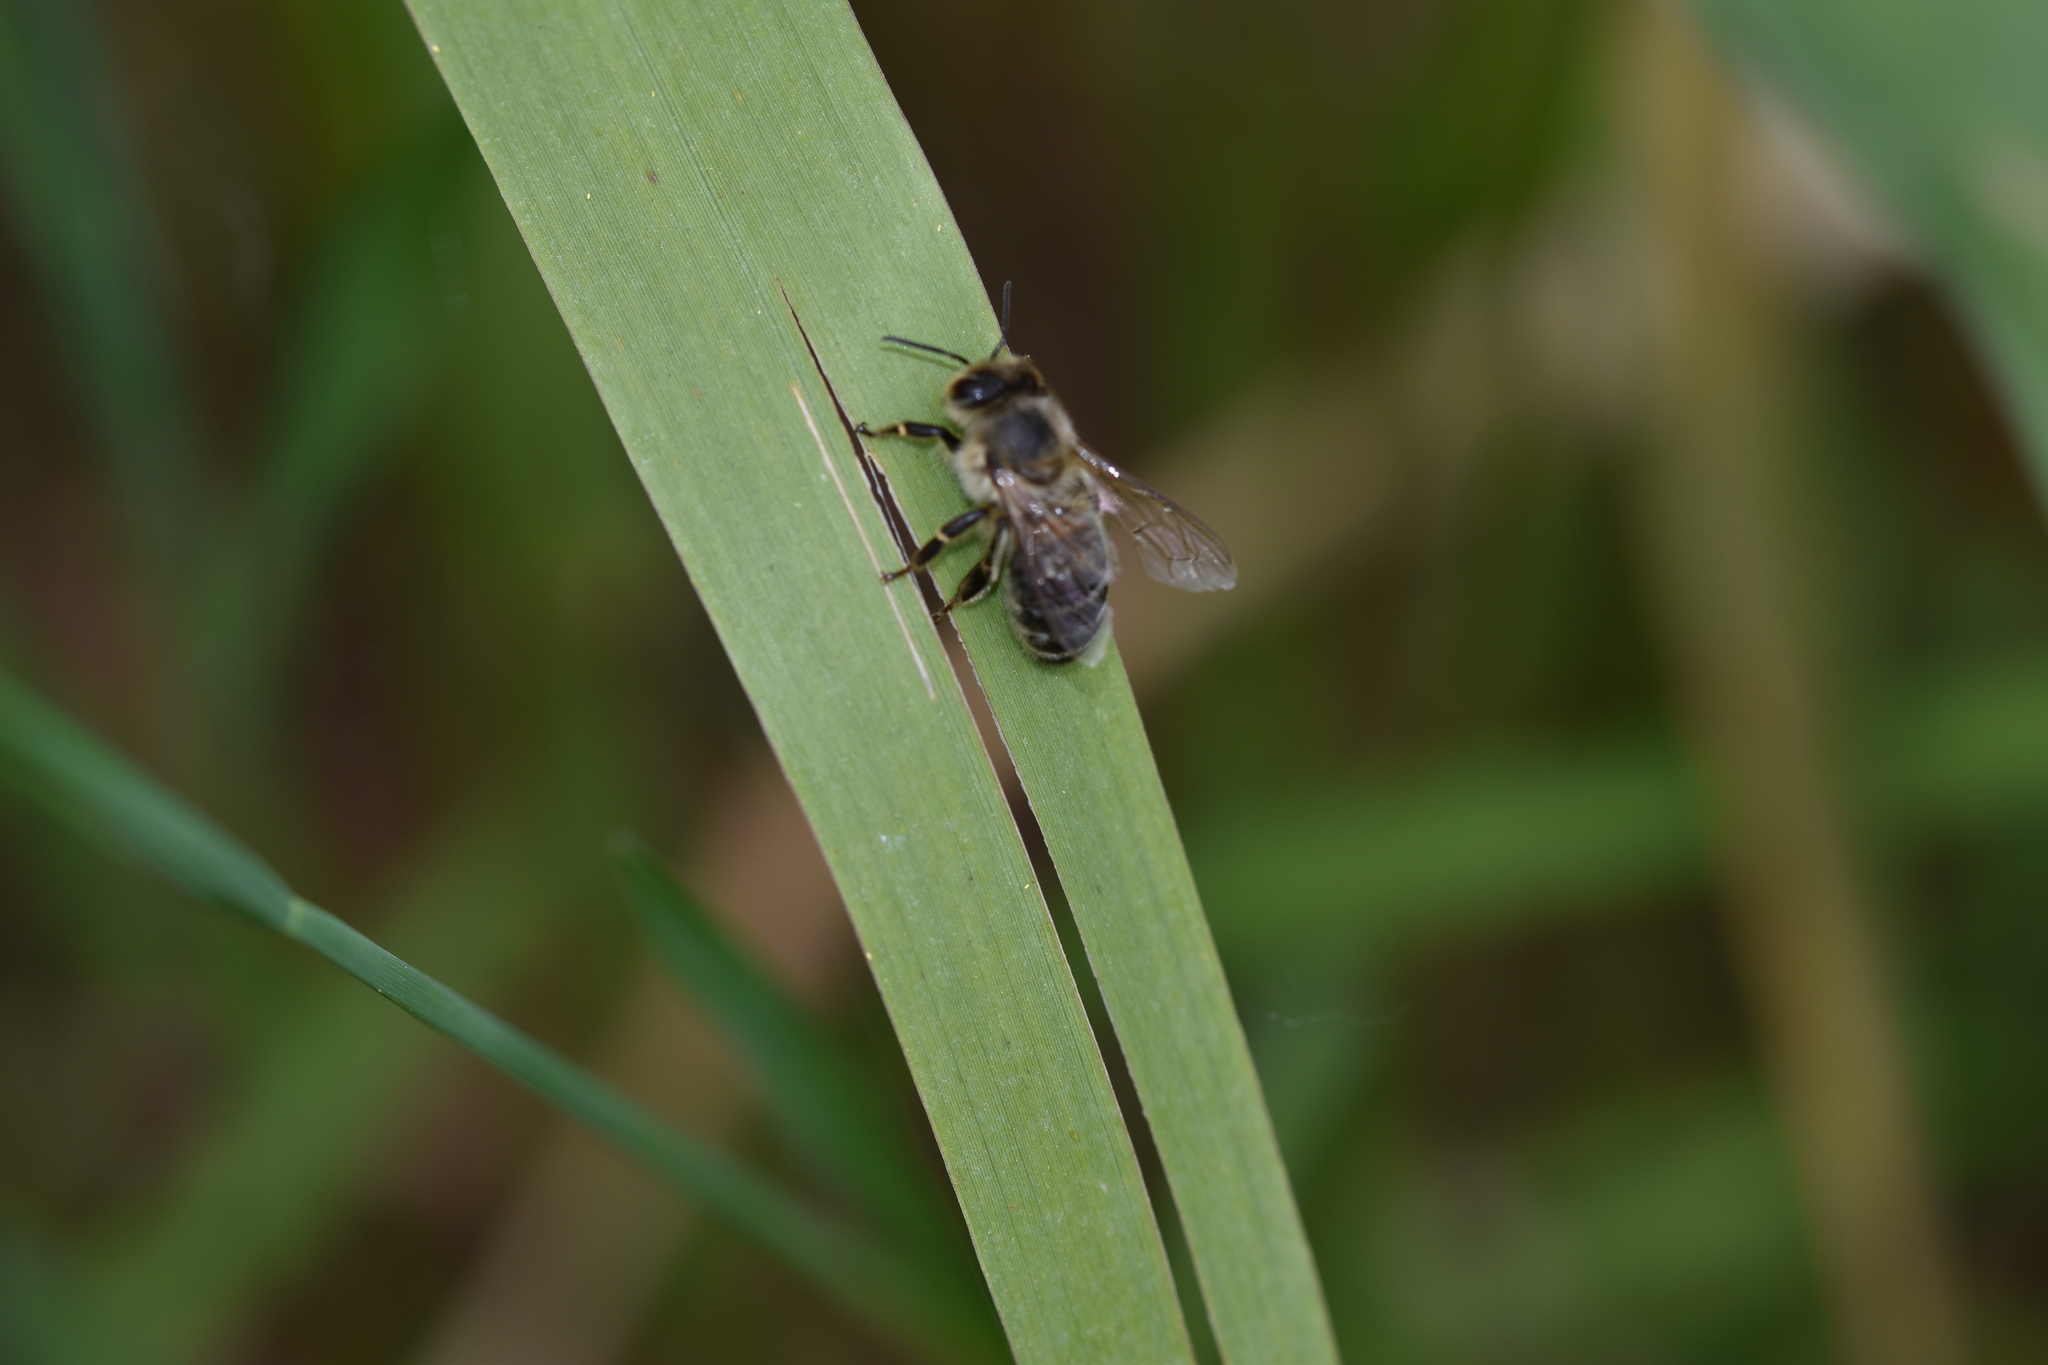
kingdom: Animalia
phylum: Arthropoda
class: Insecta
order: Hymenoptera
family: Apidae
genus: Apis
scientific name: Apis mellifera
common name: Honey bee
